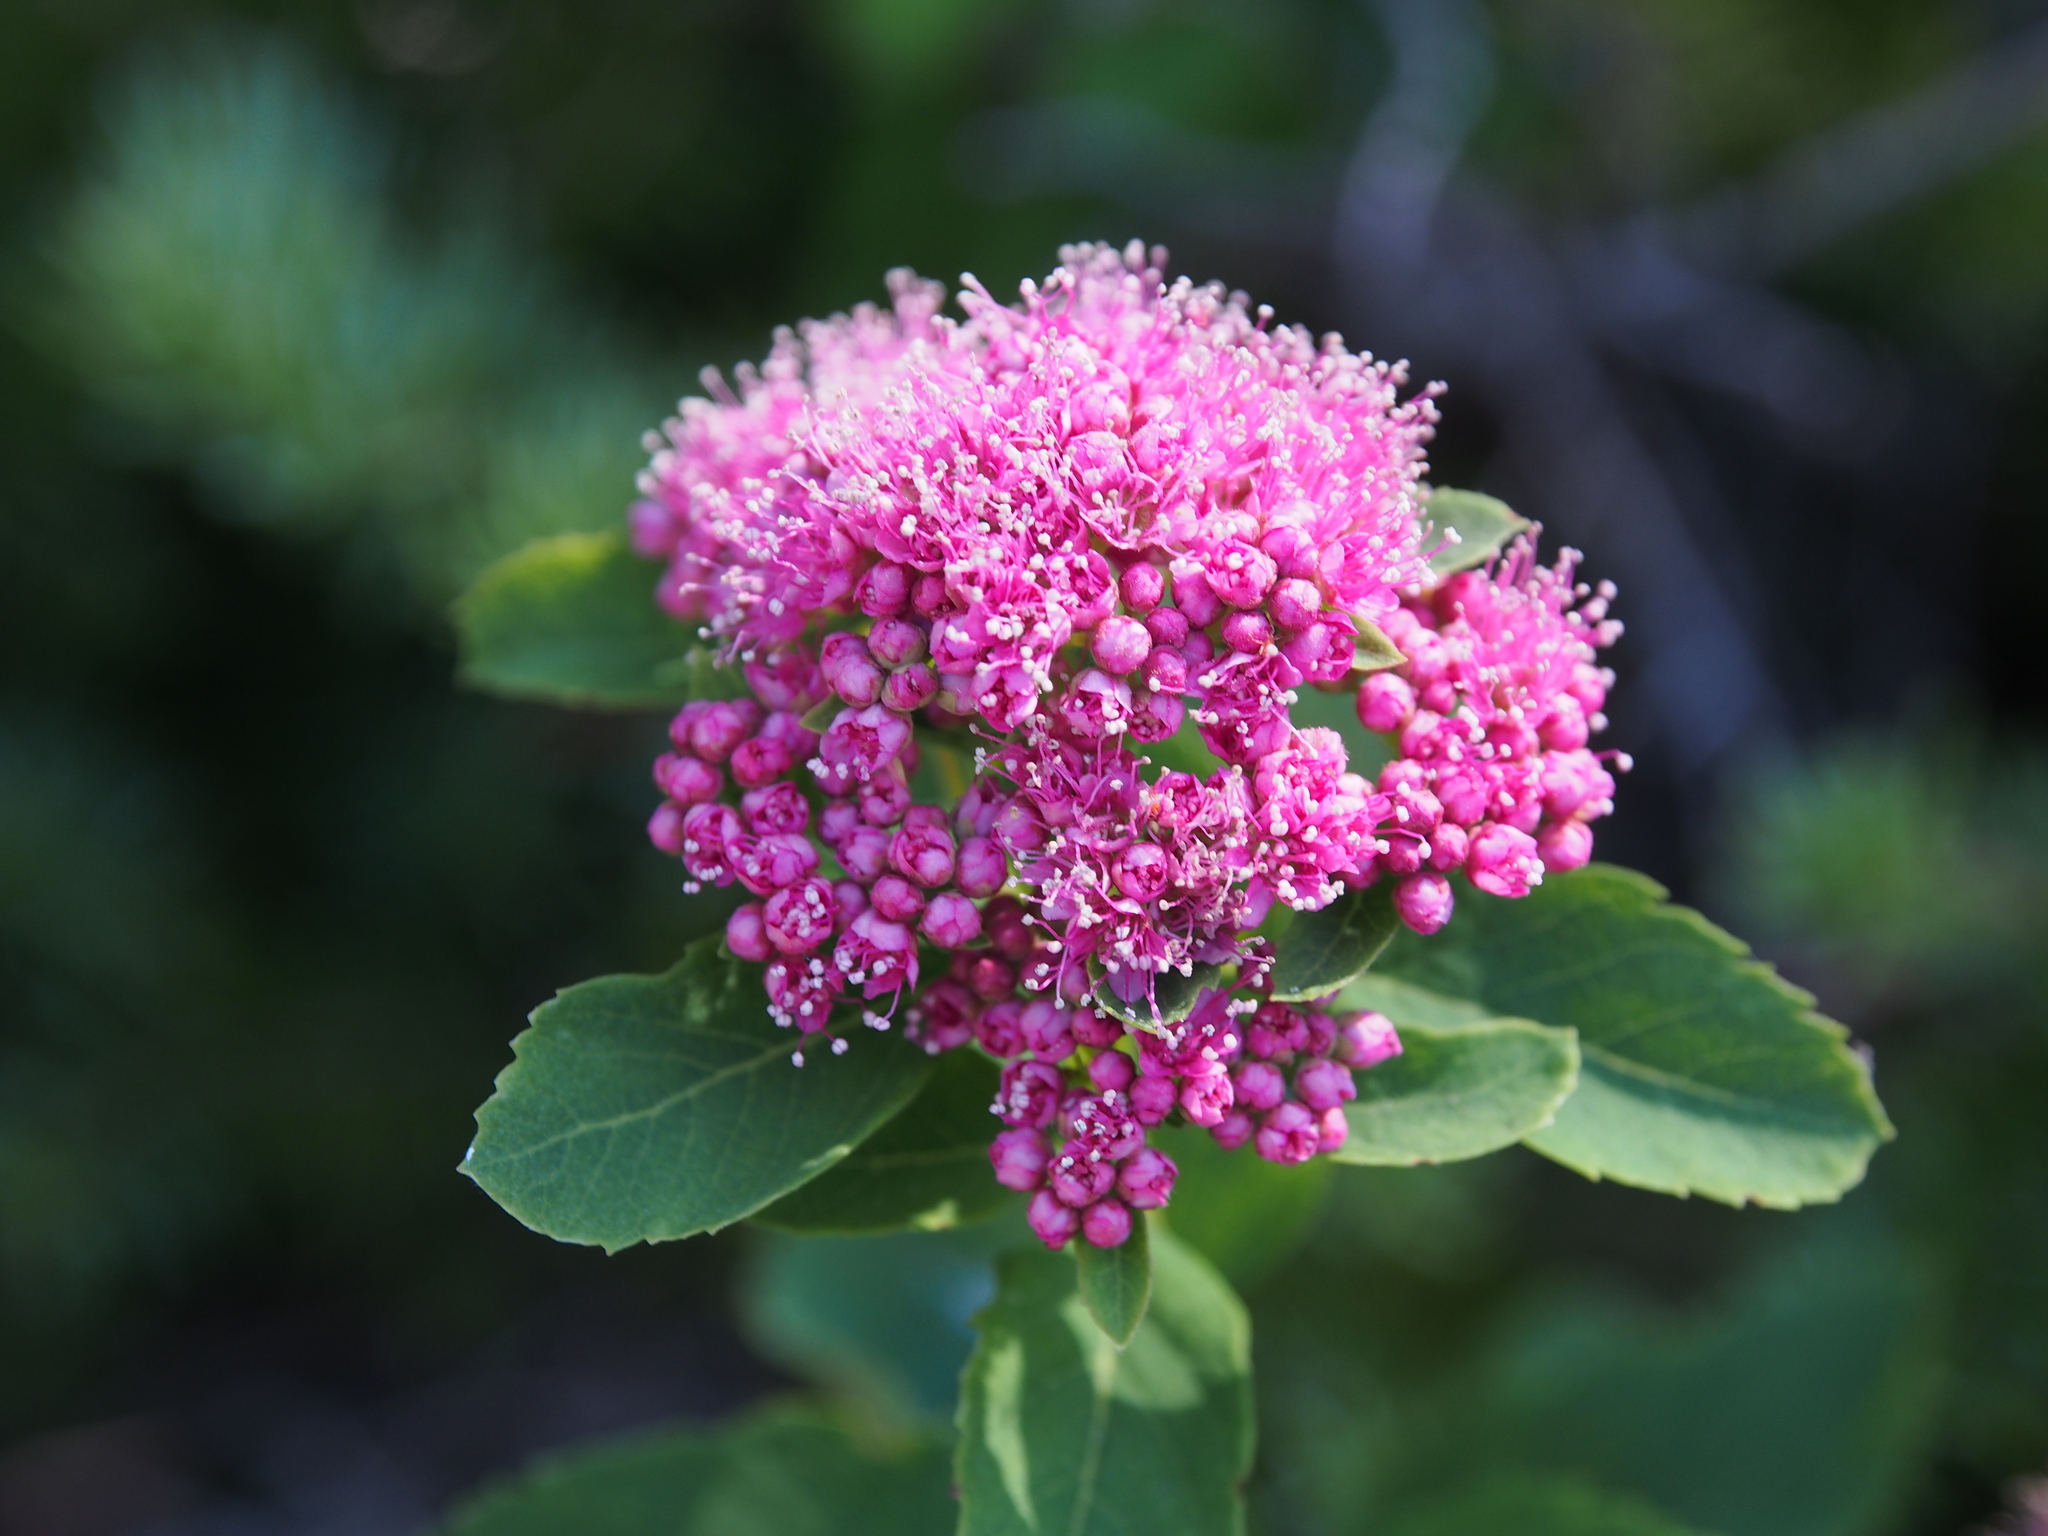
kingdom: Plantae
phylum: Tracheophyta
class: Magnoliopsida
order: Rosales
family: Rosaceae
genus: Spiraea
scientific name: Spiraea splendens
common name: Subalpine meadowsweet
